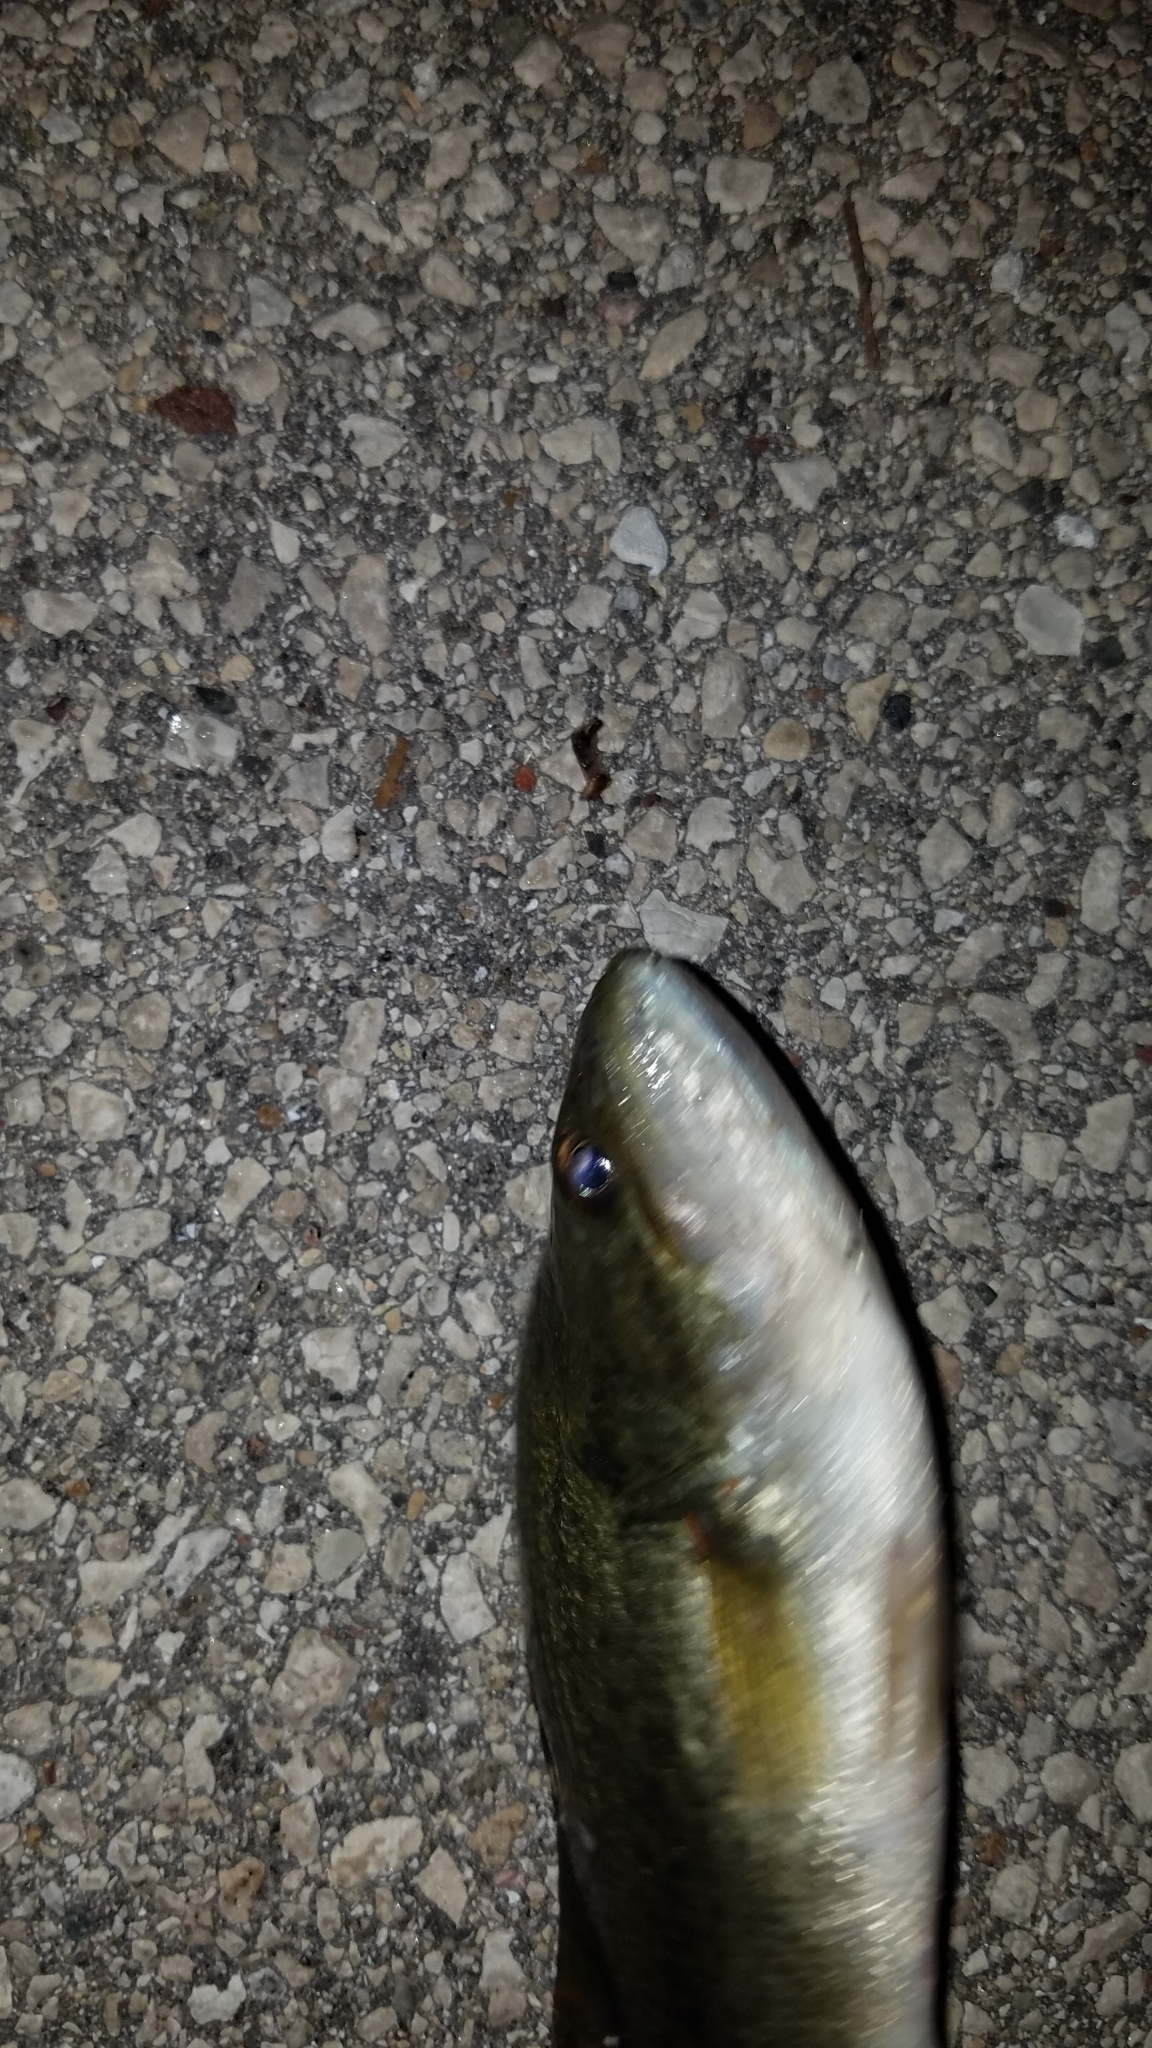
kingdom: Animalia
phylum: Chordata
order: Perciformes
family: Centrarchidae
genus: Micropterus
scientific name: Micropterus
